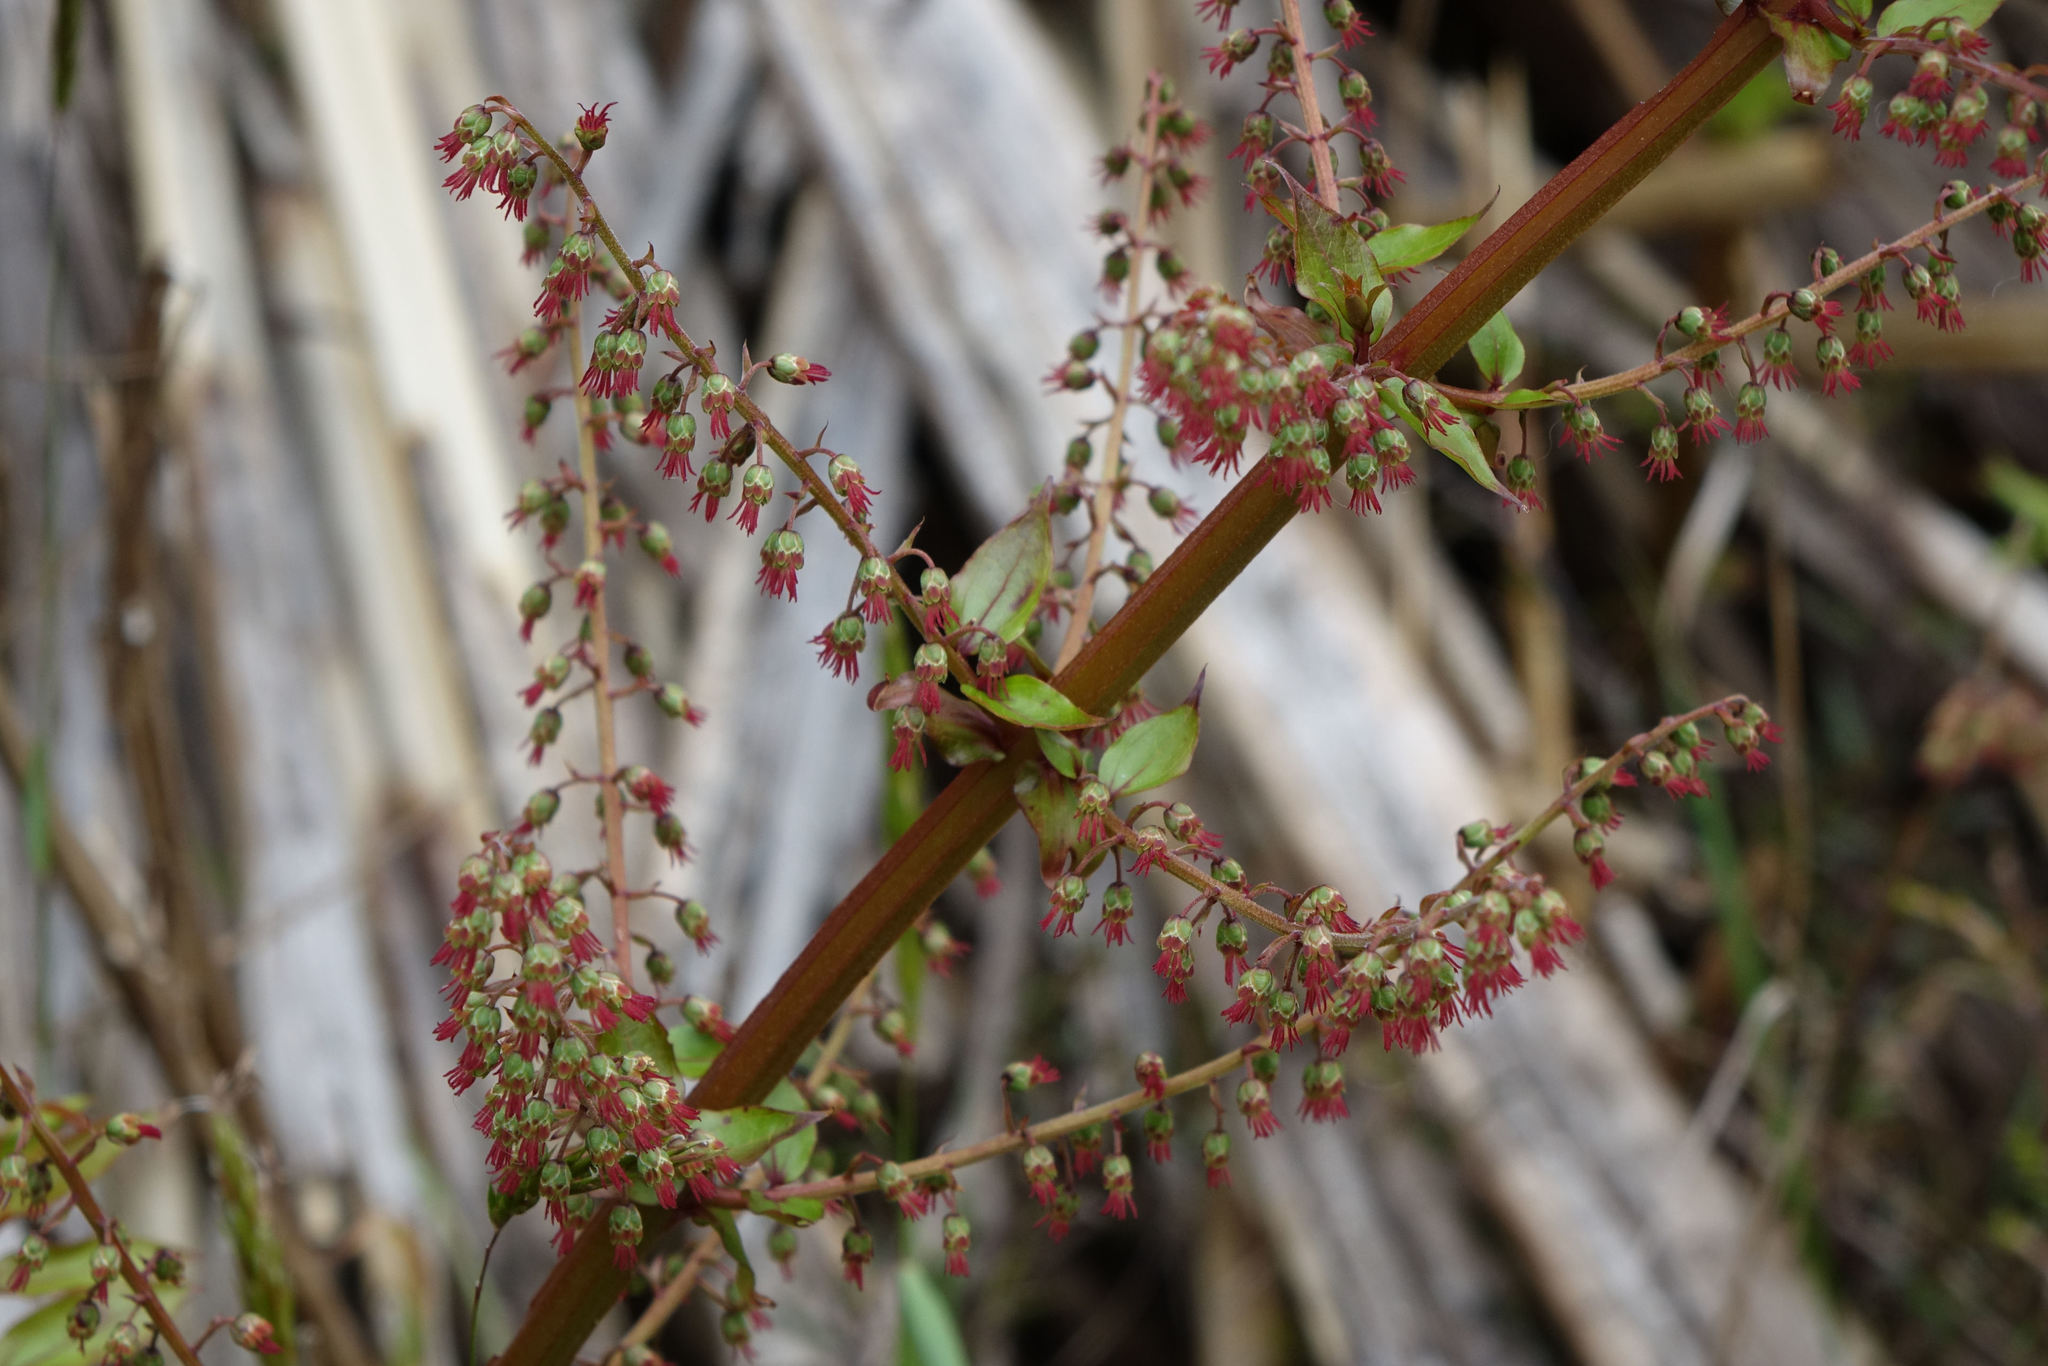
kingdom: Plantae
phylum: Tracheophyta
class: Magnoliopsida
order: Cucurbitales
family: Coriariaceae
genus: Coriaria
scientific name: Coriaria sarmentosa
